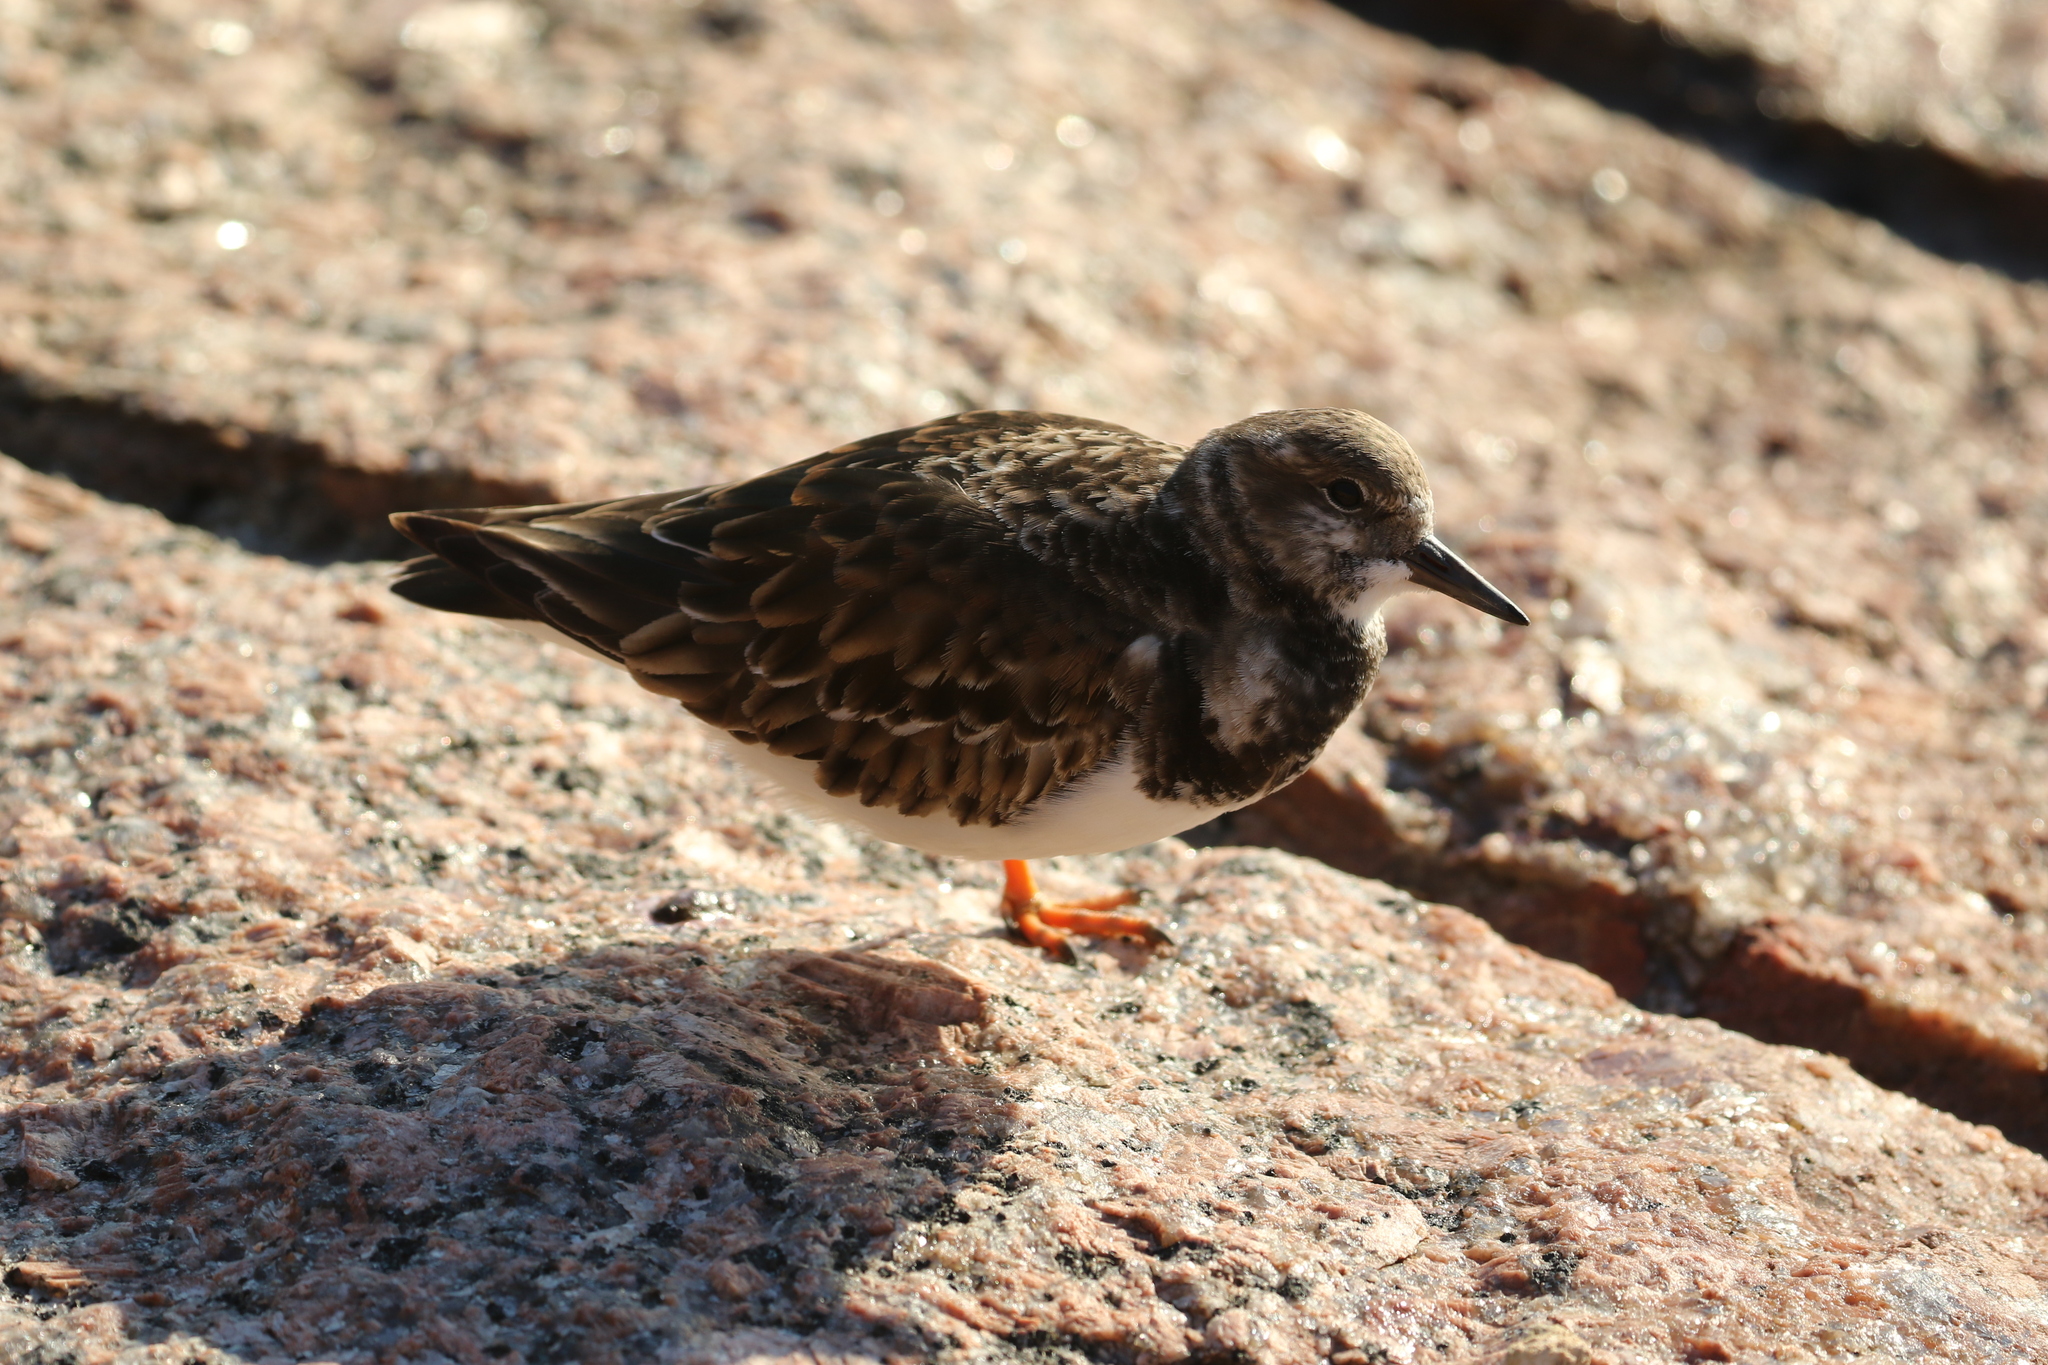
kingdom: Animalia
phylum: Chordata
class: Aves
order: Charadriiformes
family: Scolopacidae
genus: Arenaria
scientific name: Arenaria interpres
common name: Ruddy turnstone
